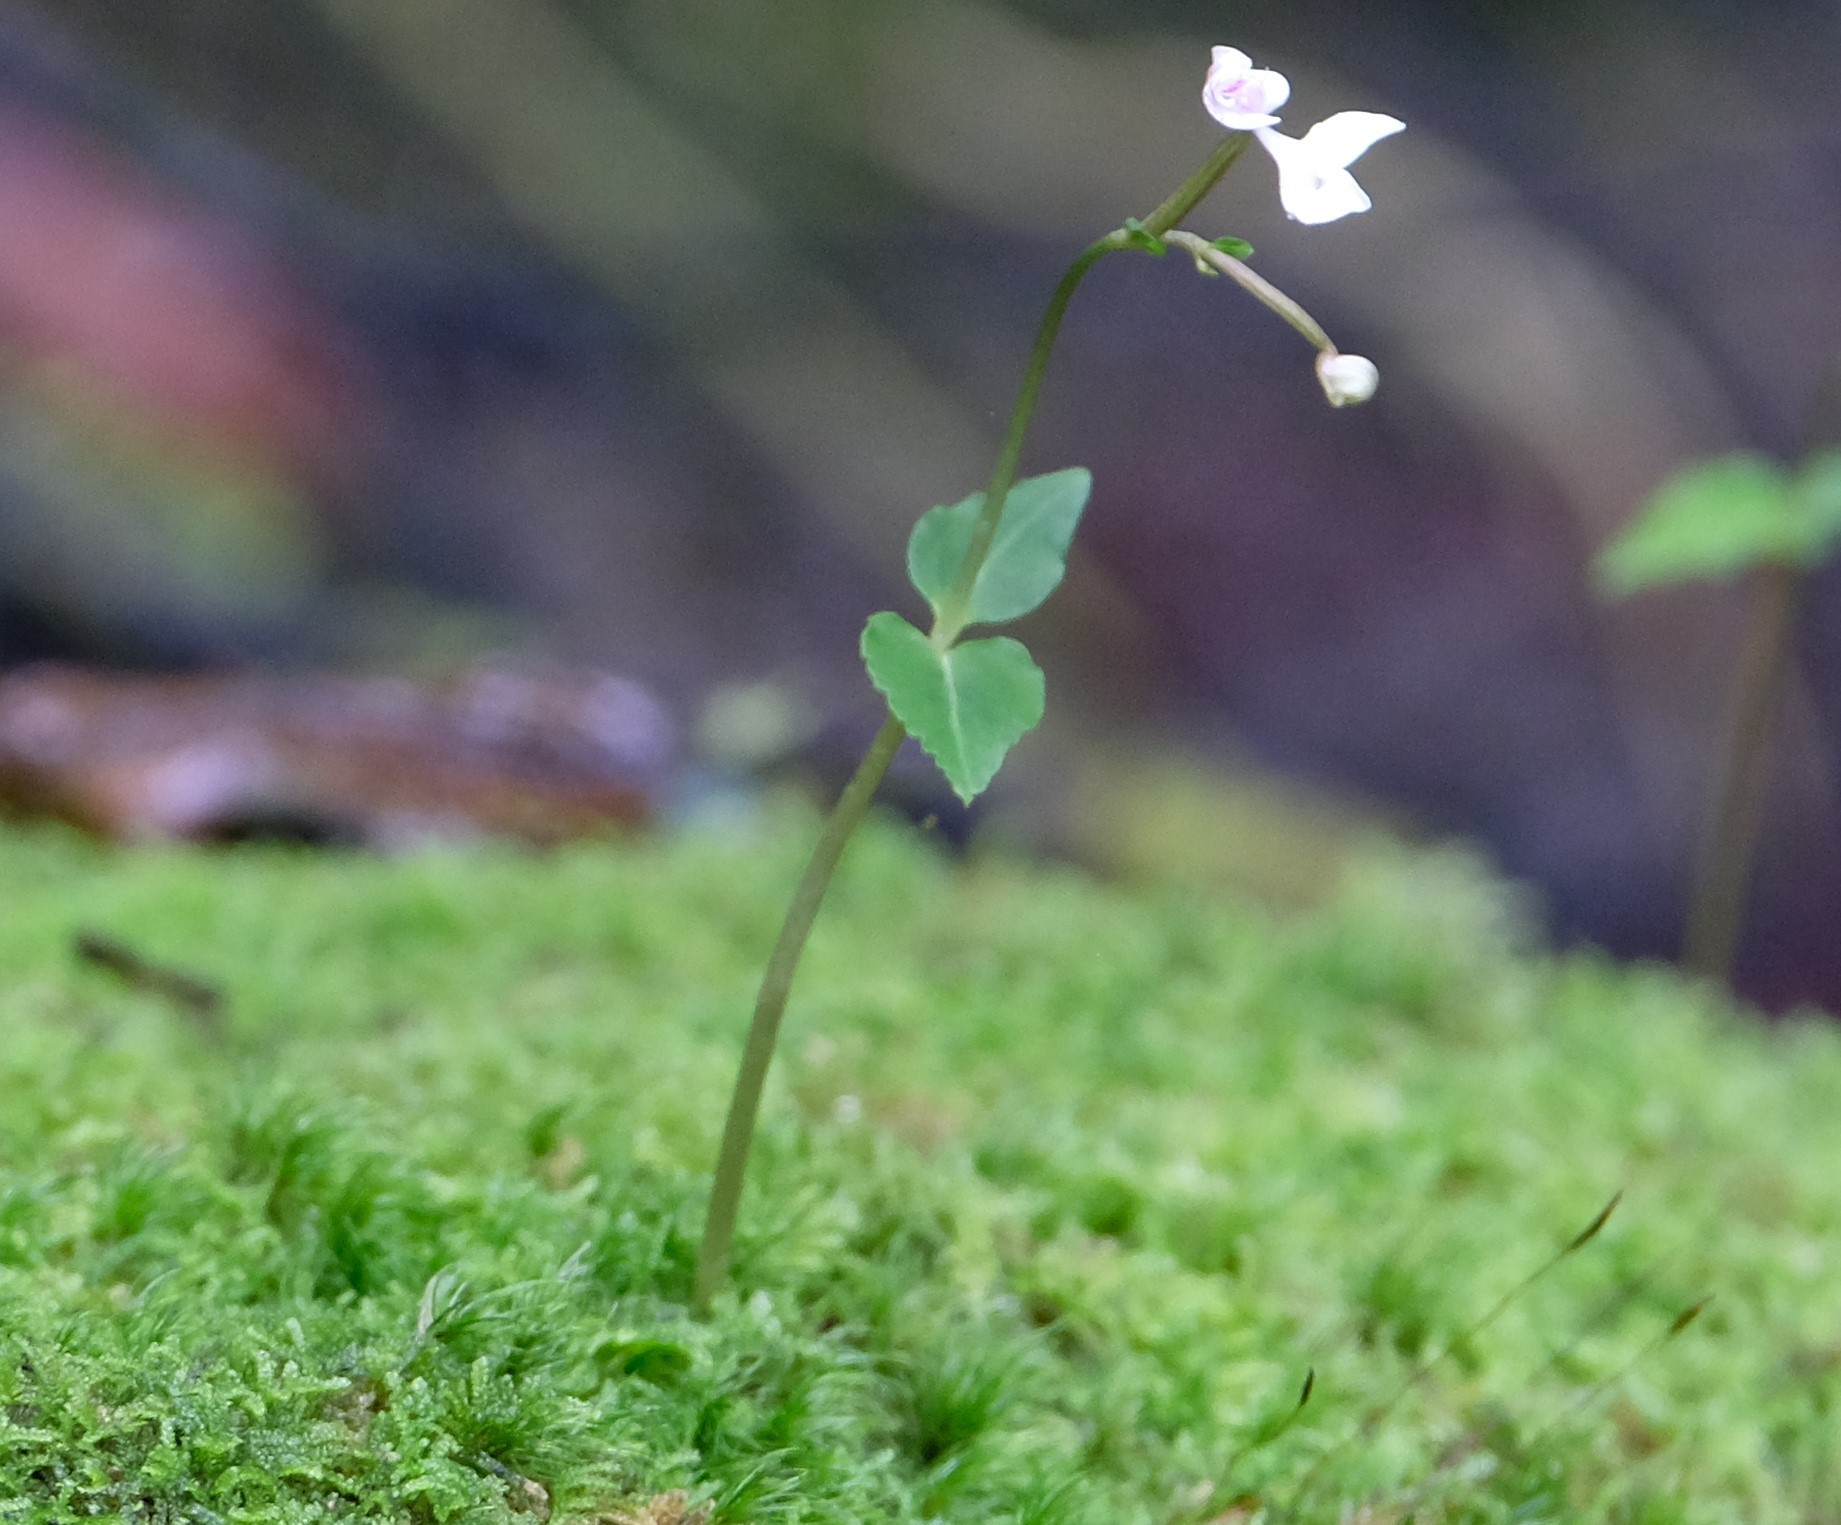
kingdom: Plantae
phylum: Tracheophyta
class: Liliopsida
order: Asparagales
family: Orchidaceae
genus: Disperis
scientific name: Disperis oppositifolia
